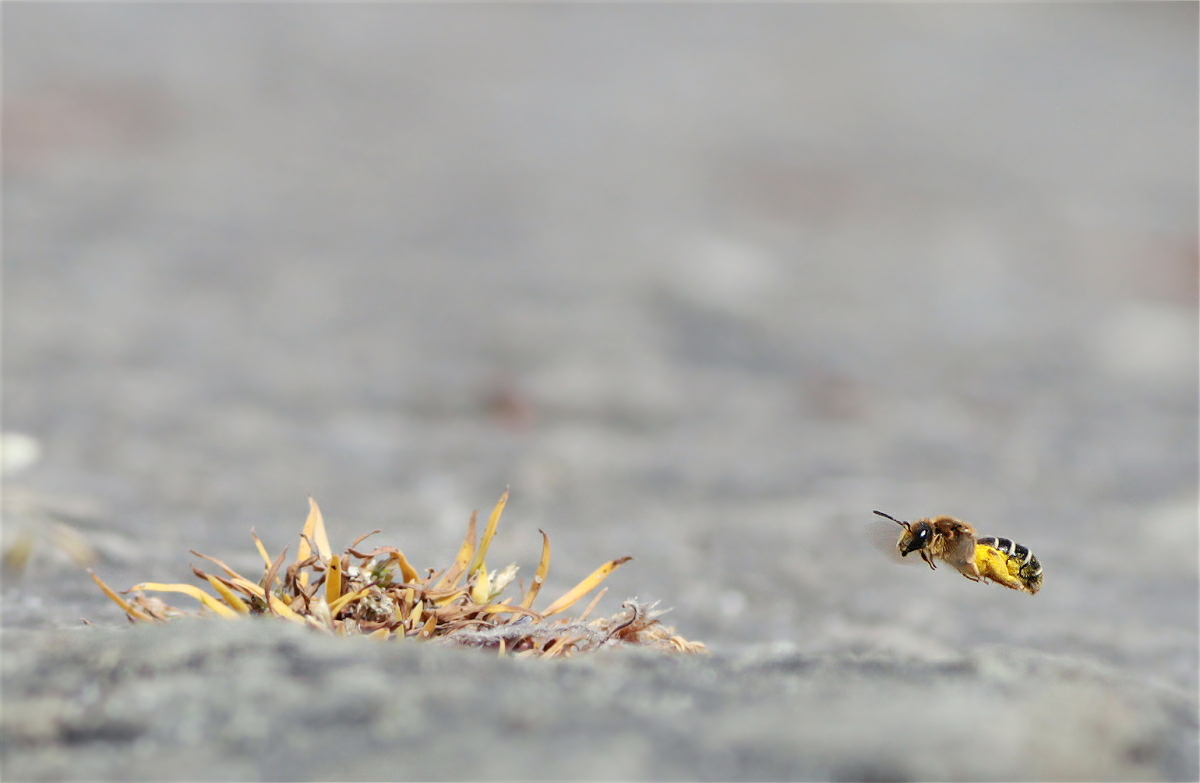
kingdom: Animalia
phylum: Arthropoda
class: Insecta
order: Hymenoptera
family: Halictidae
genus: Halictus
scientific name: Halictus rubicundus
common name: Orange-legged furrow bee
